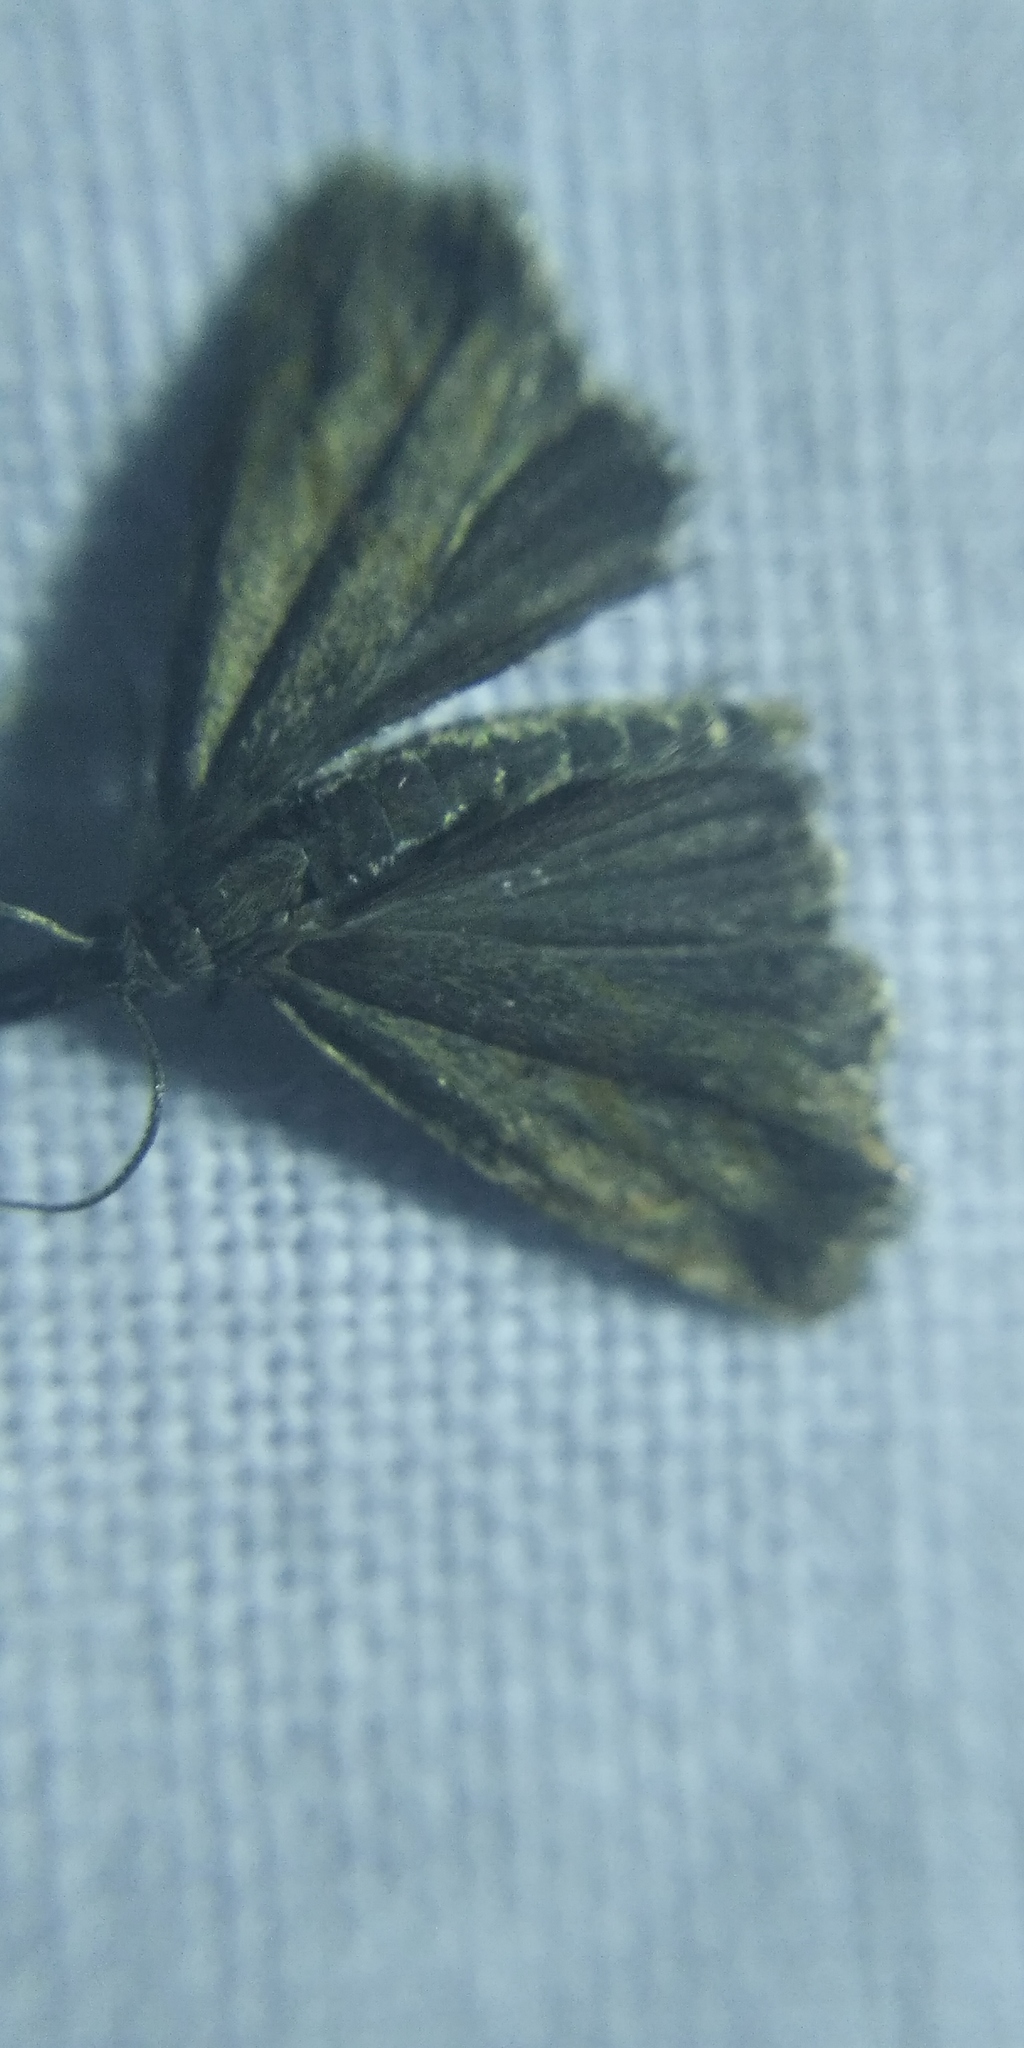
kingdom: Animalia
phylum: Arthropoda
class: Insecta
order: Lepidoptera
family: Crambidae
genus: Platytes
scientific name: Platytes cerusella
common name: Little grass-veneer
